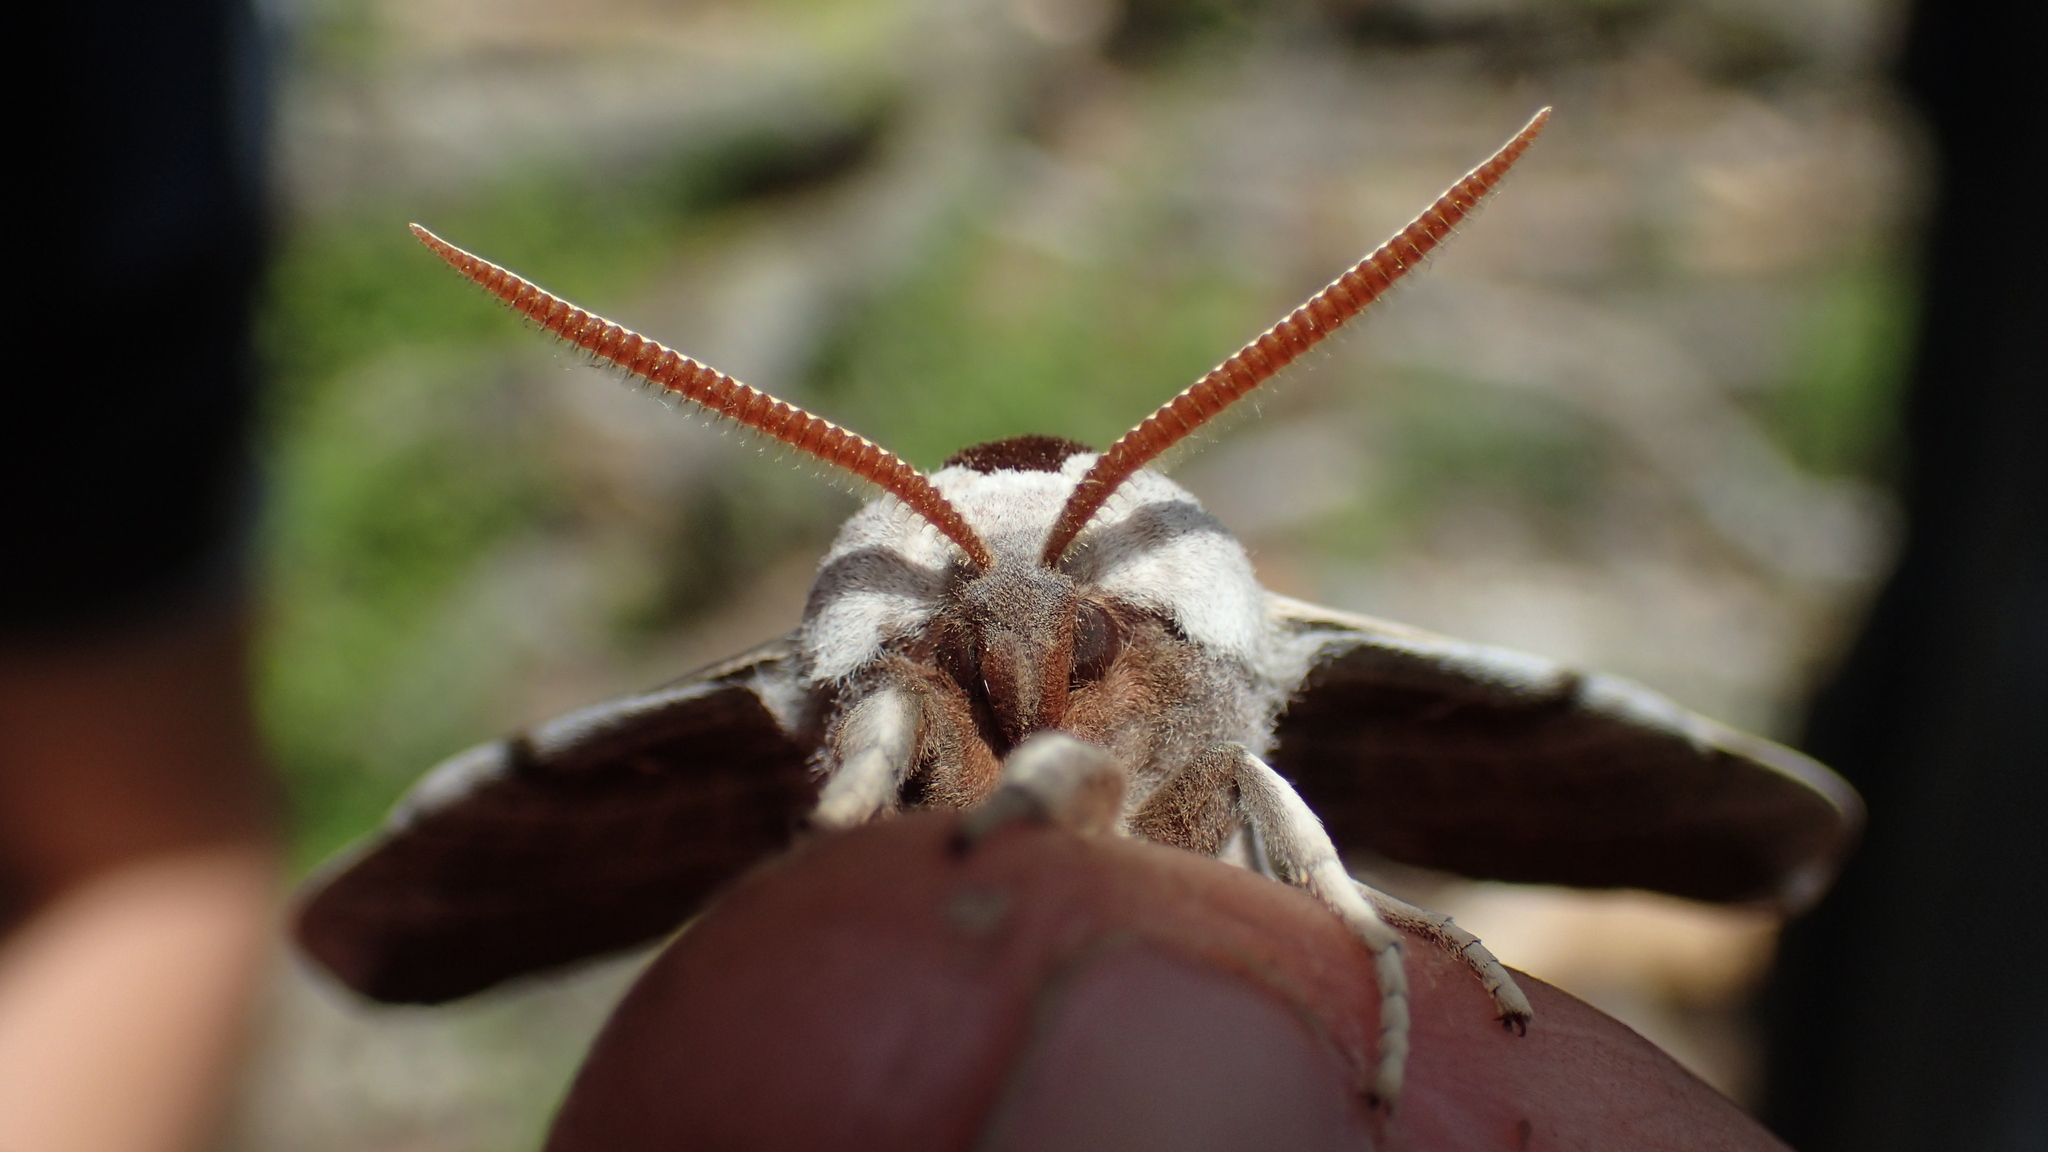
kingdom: Animalia
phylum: Arthropoda
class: Insecta
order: Lepidoptera
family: Sphingidae
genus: Smerinthus
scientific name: Smerinthus cerisyi
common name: Cerisy's sphinx moth
